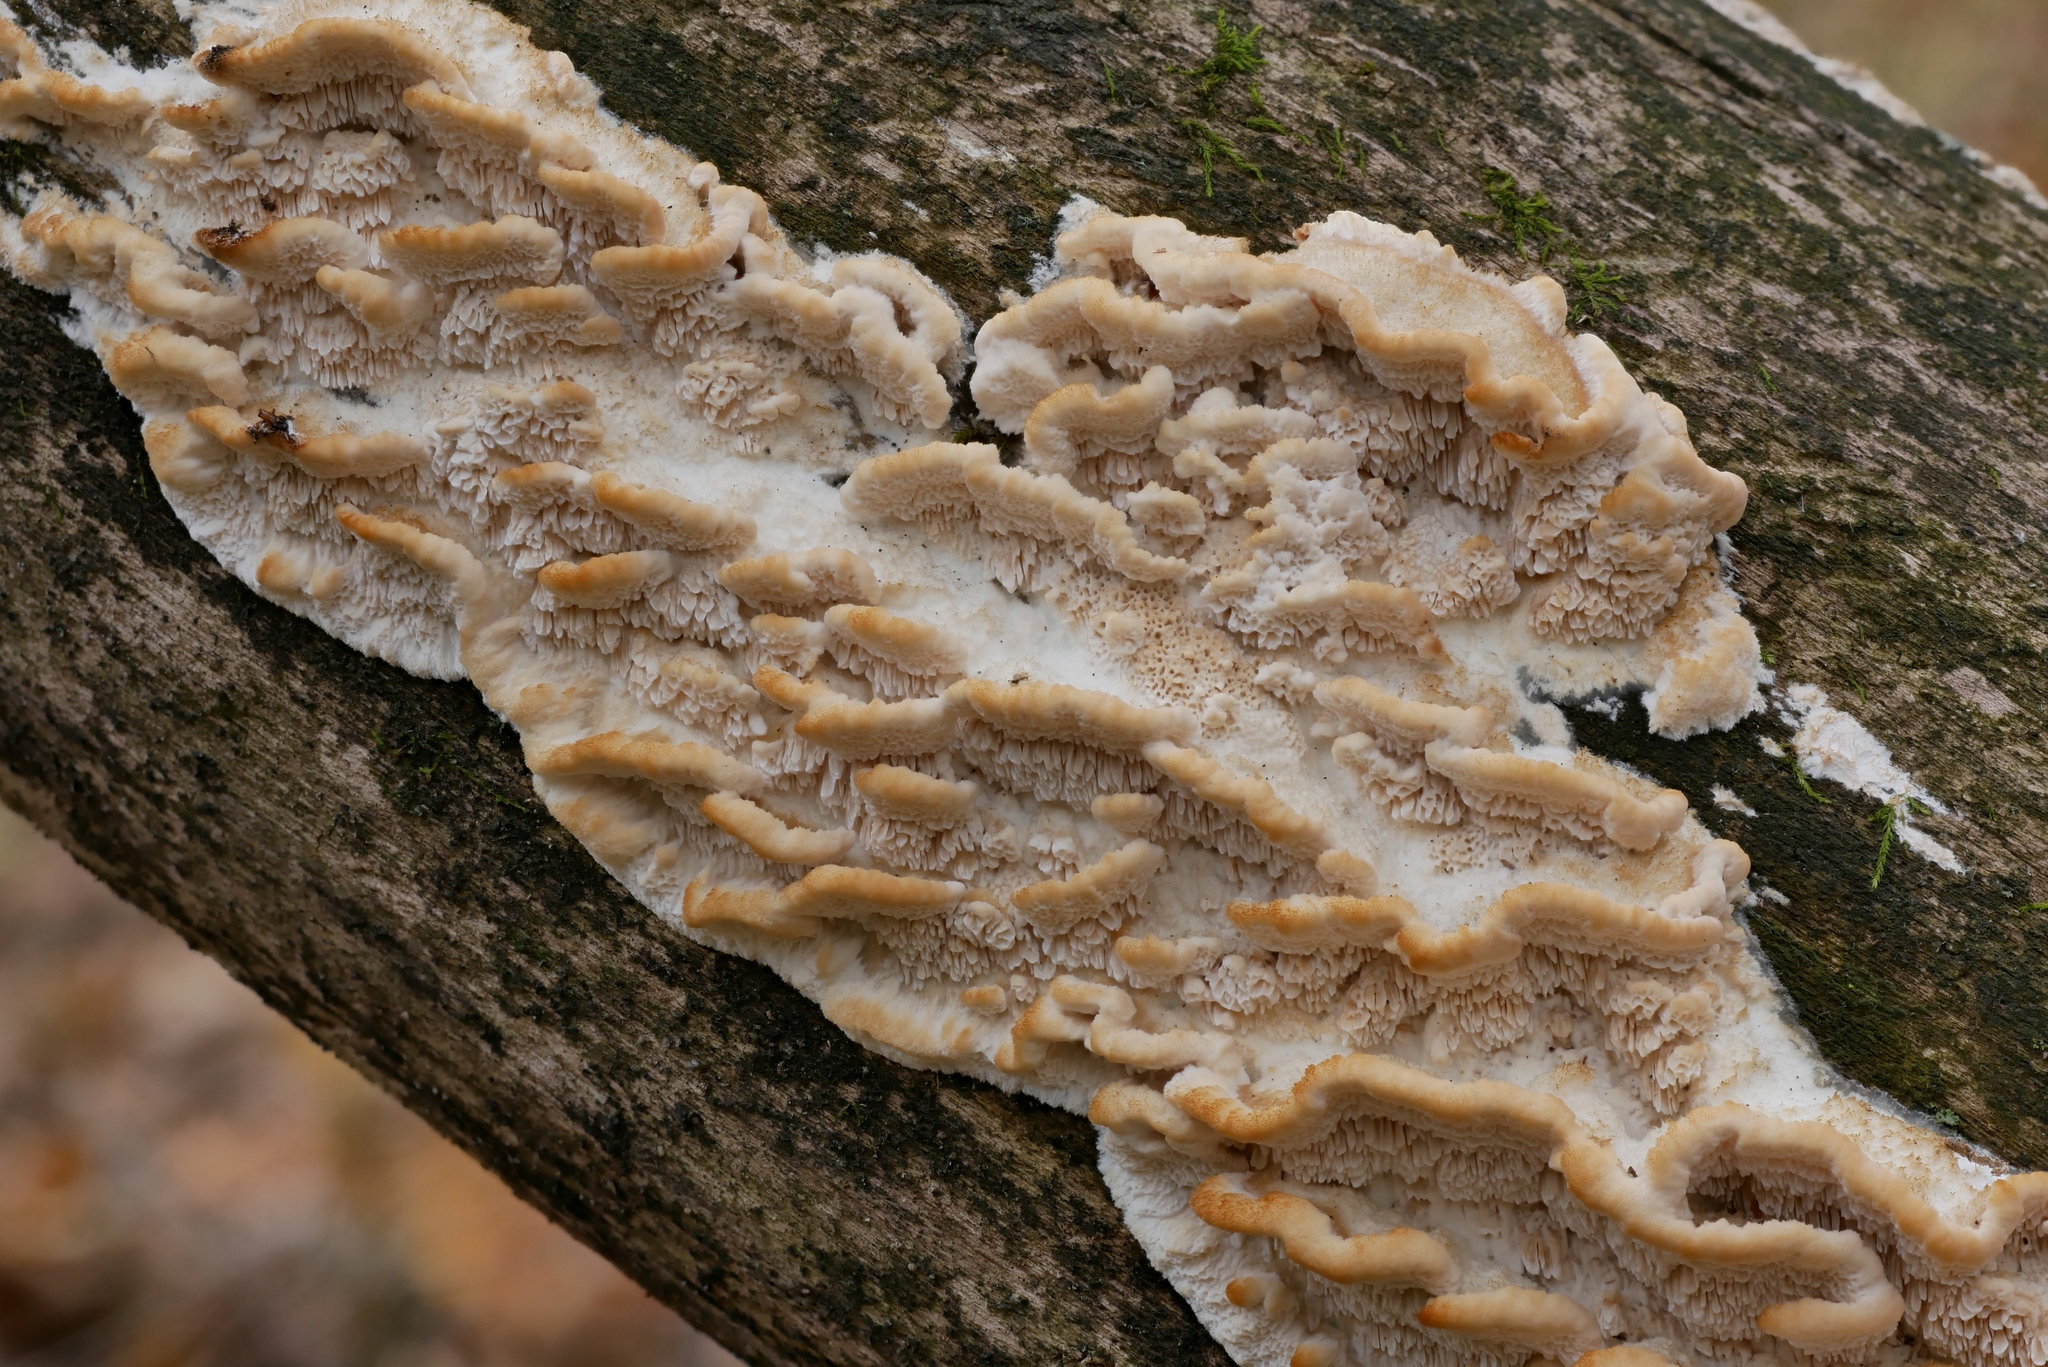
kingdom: Fungi
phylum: Basidiomycota
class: Agaricomycetes
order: Polyporales
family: Irpicaceae
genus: Trametopsis
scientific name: Trametopsis cervina
